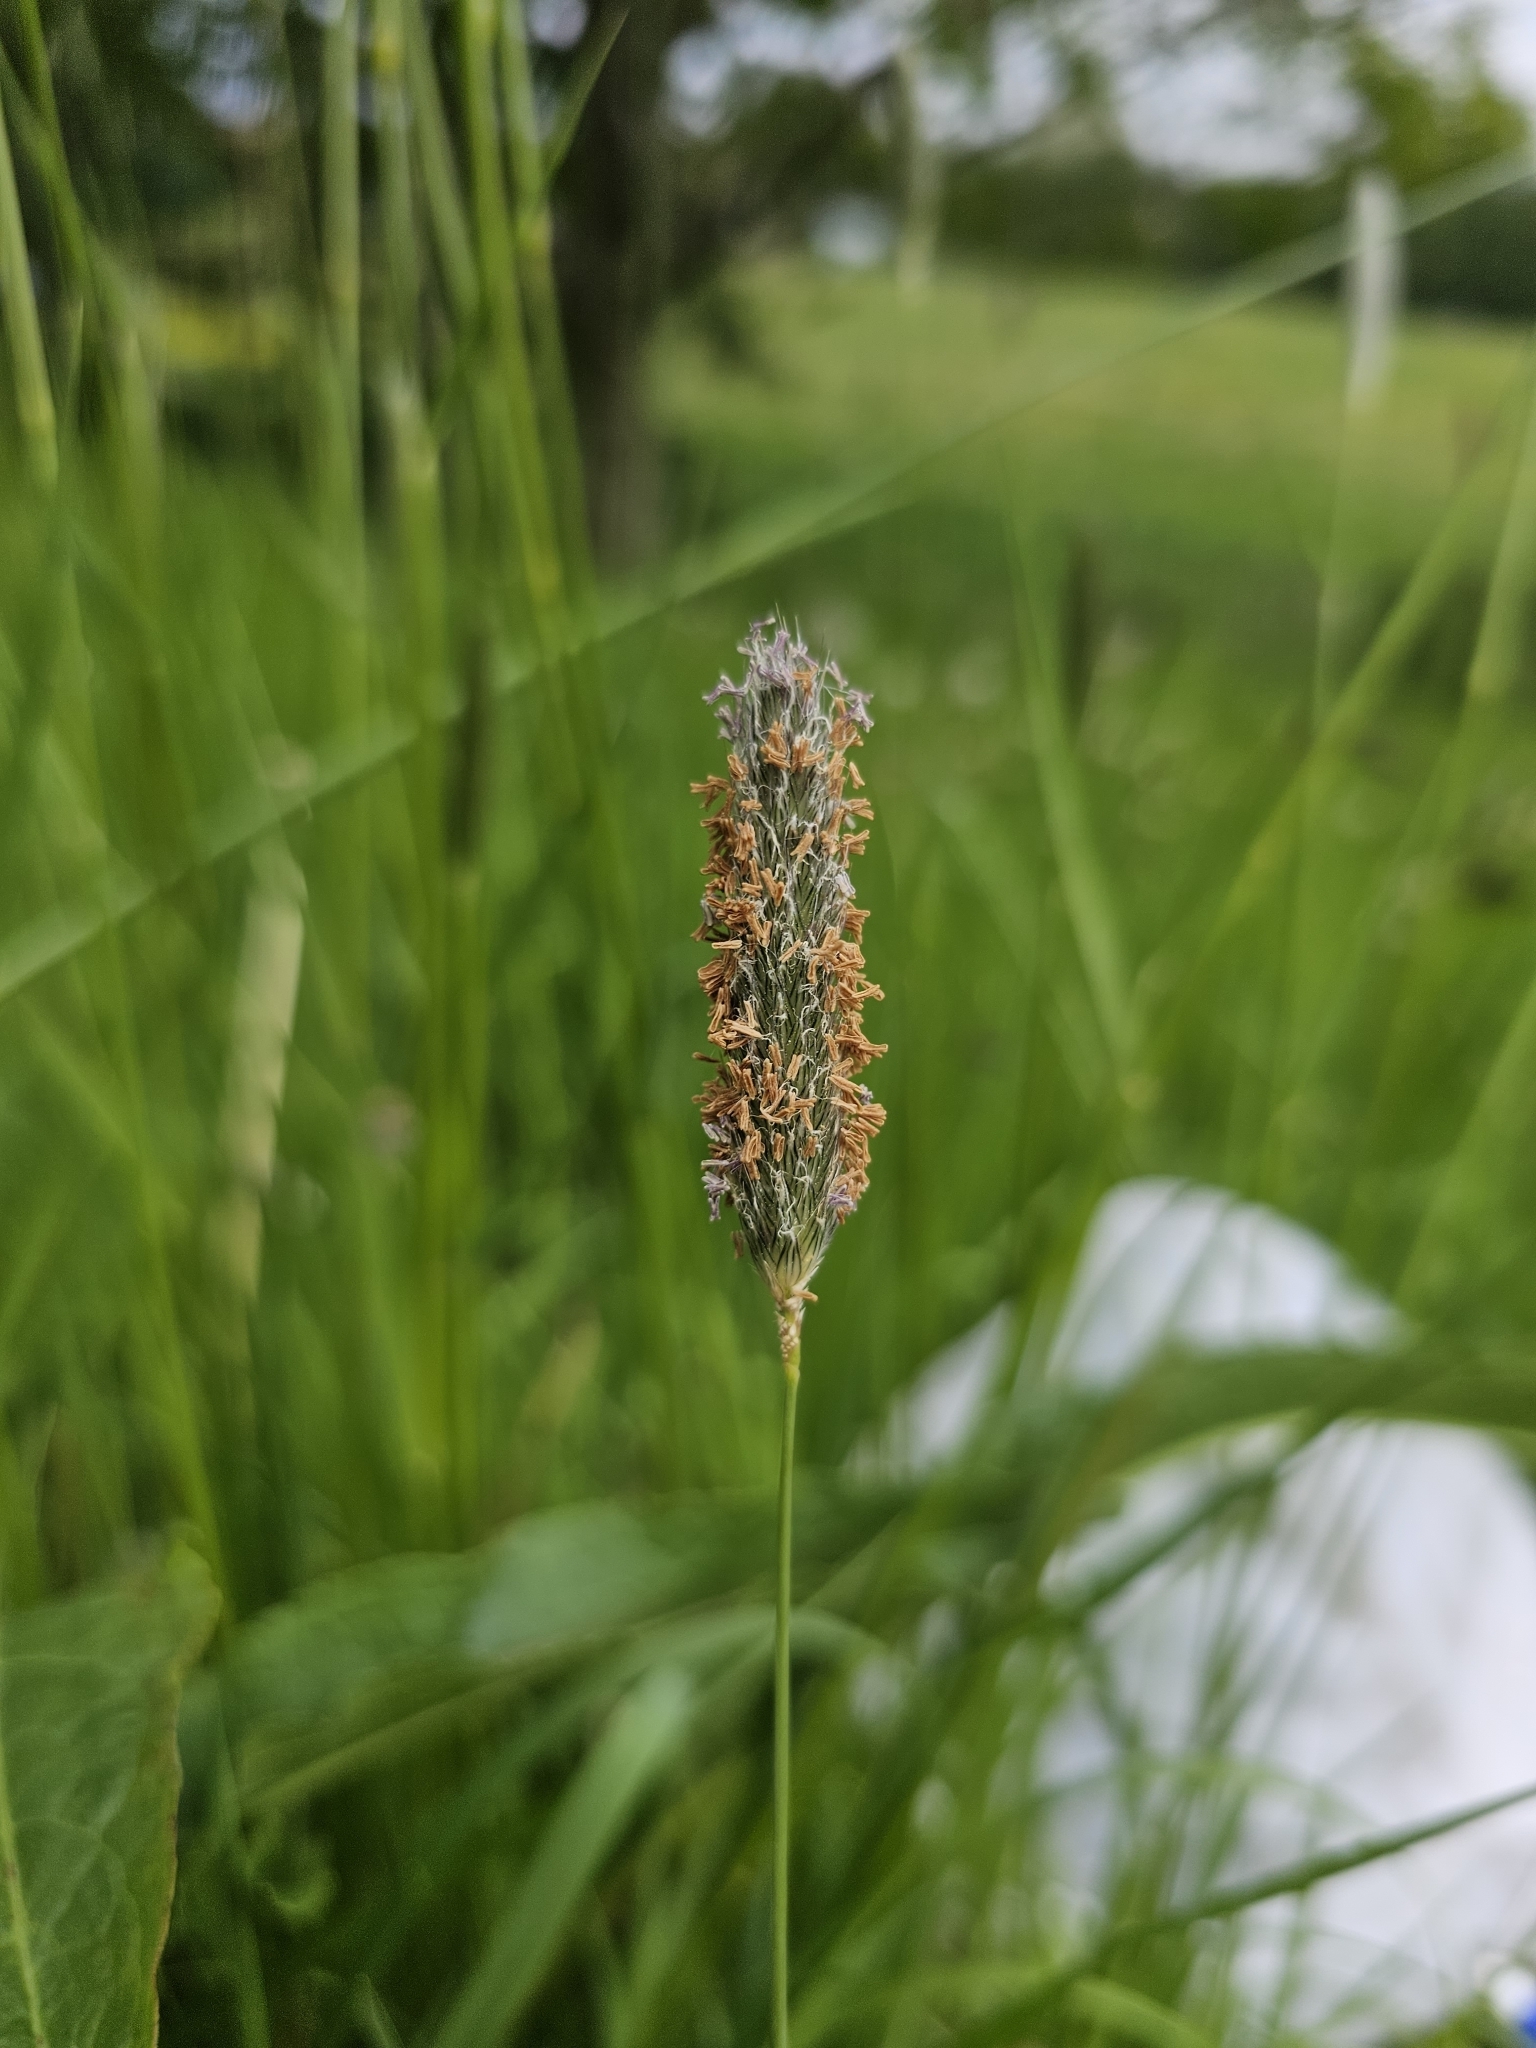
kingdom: Plantae
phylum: Tracheophyta
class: Liliopsida
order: Poales
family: Poaceae
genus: Alopecurus
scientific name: Alopecurus pratensis
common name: Meadow foxtail
